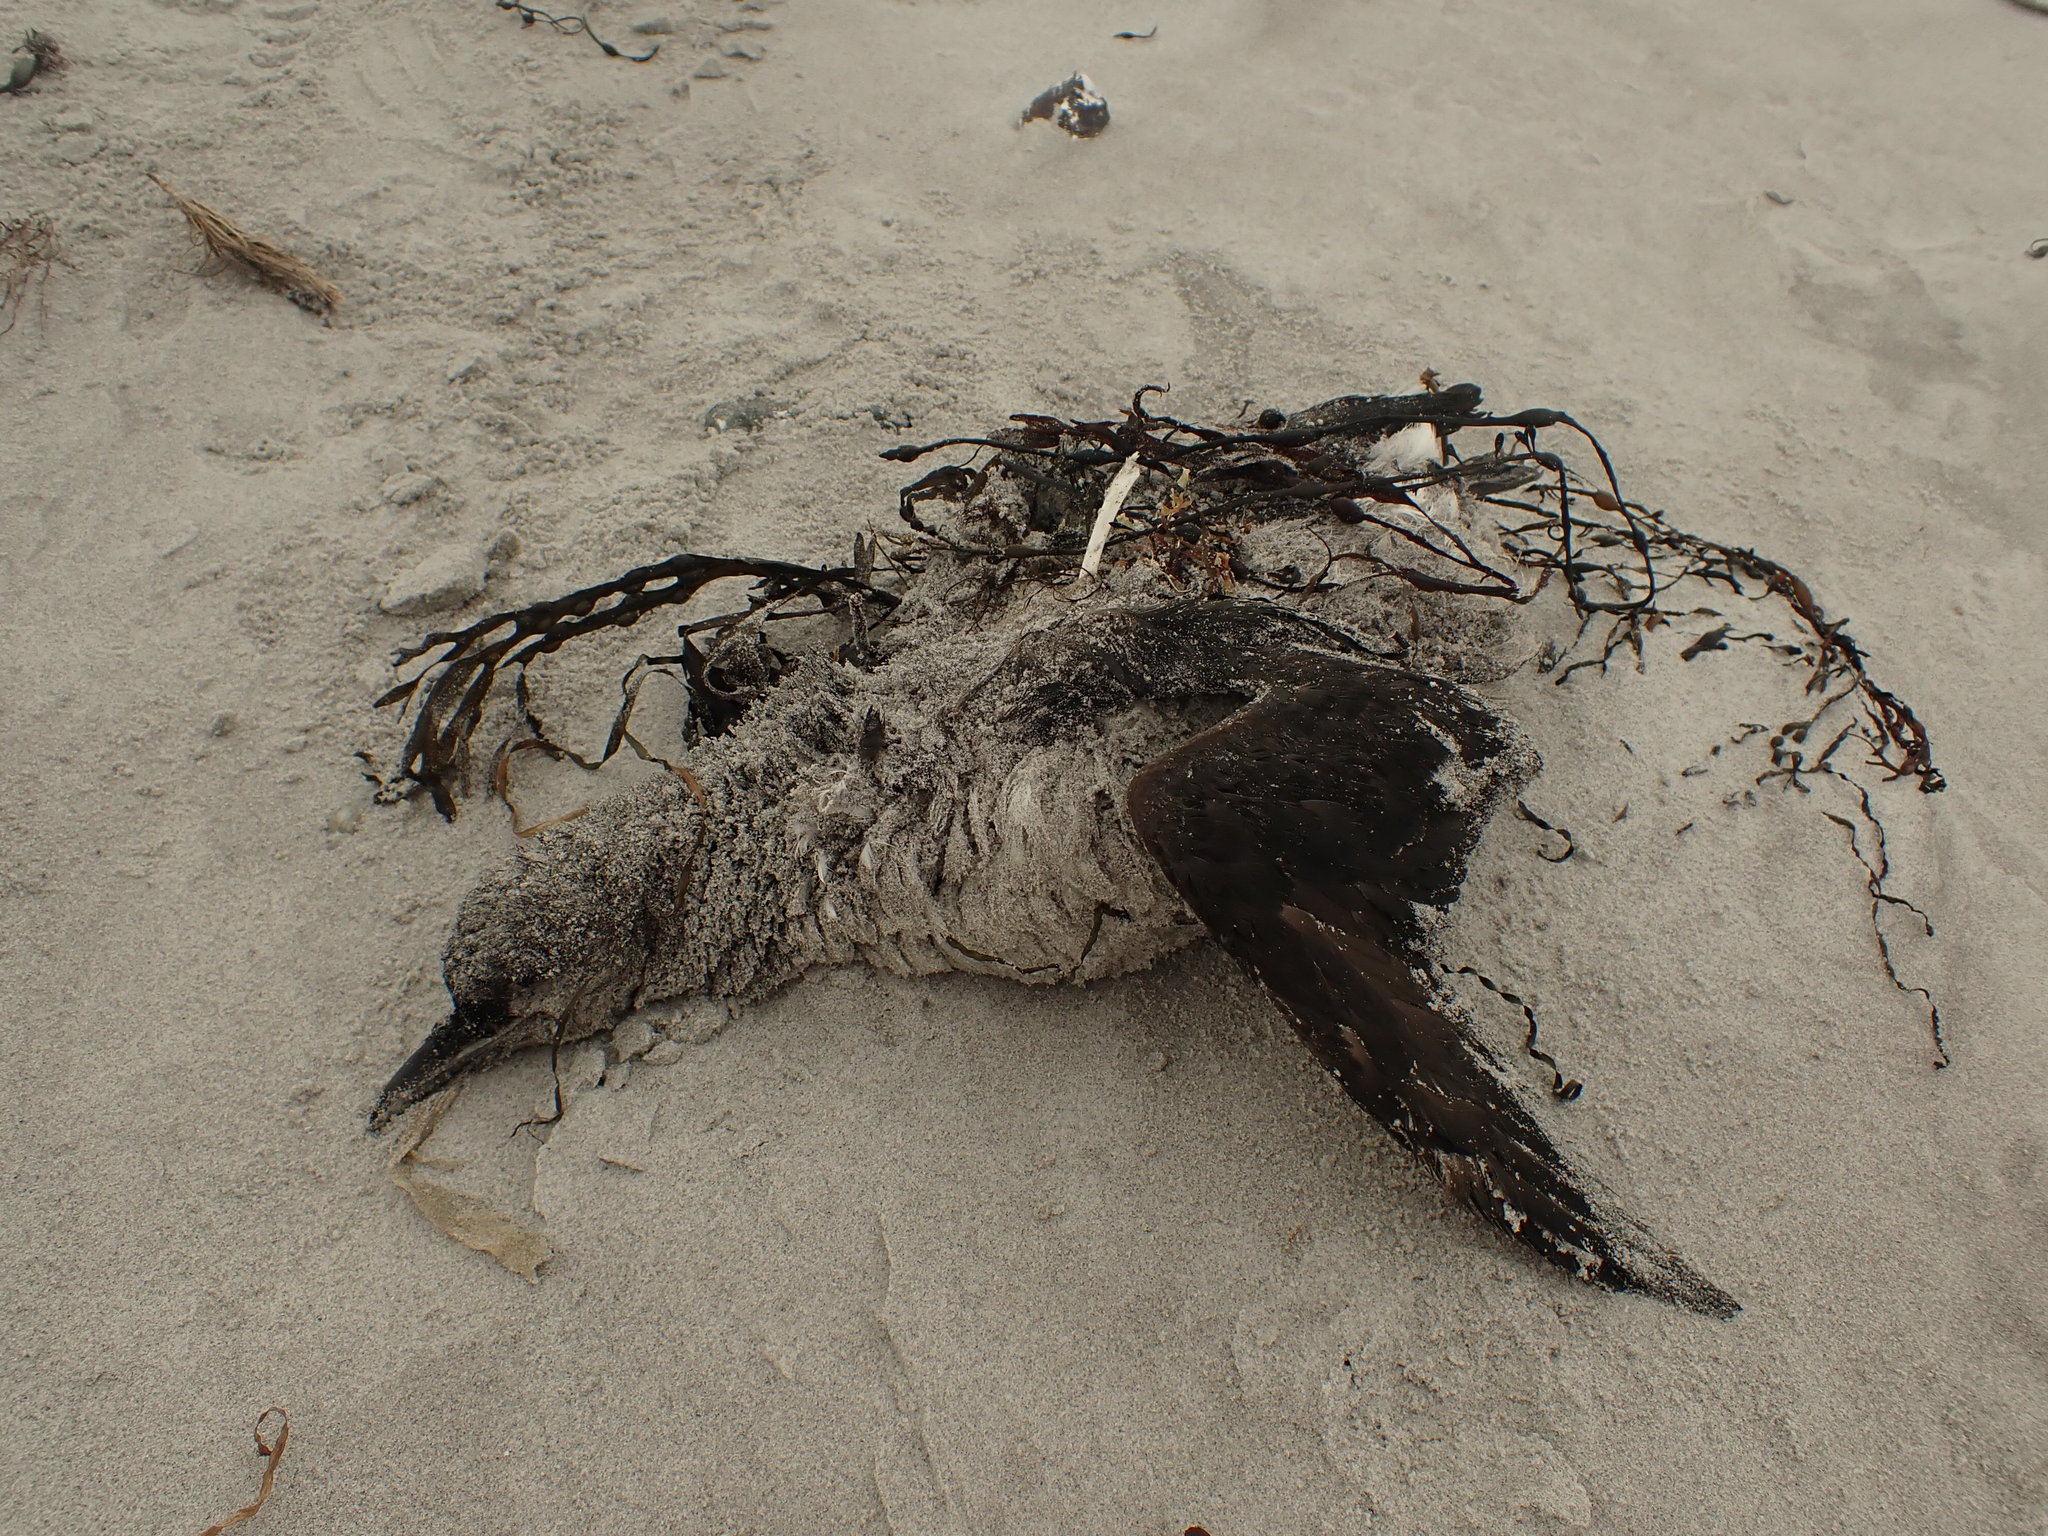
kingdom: Animalia
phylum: Chordata
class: Aves
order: Charadriiformes
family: Alcidae
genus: Uria
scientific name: Uria lomvia
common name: Thick-billed murre
